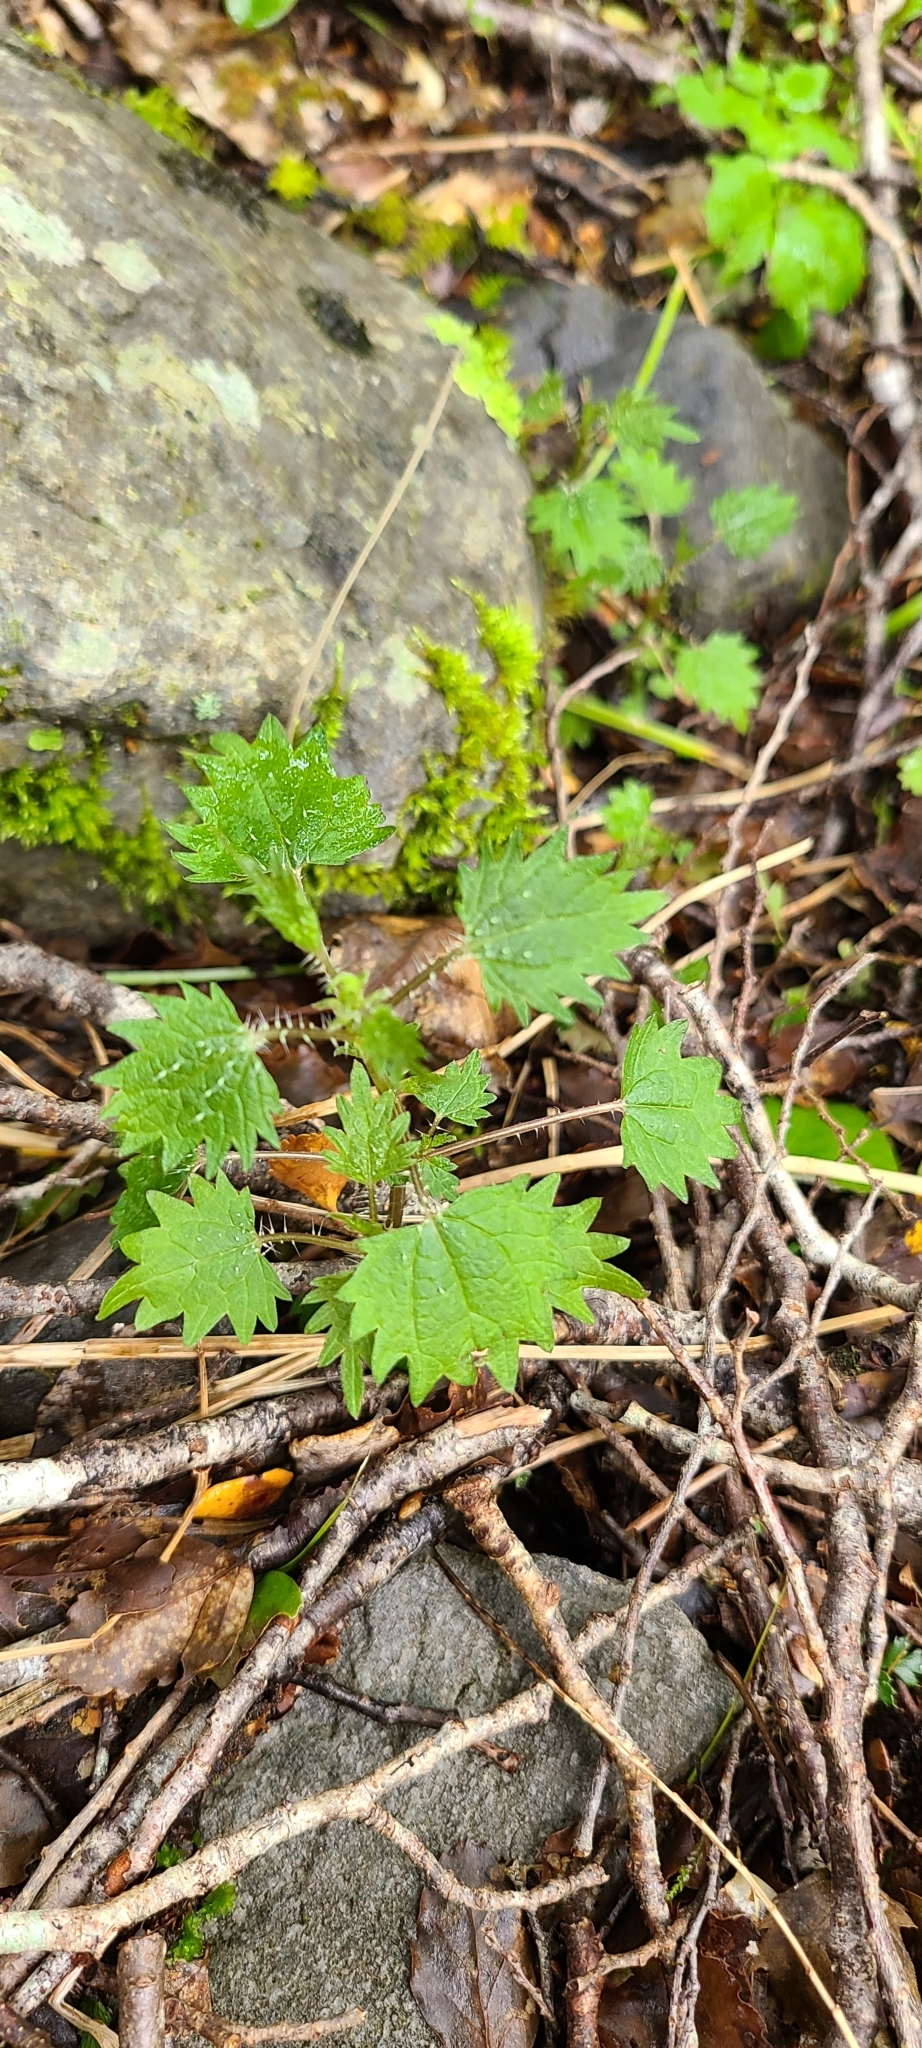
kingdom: Plantae
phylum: Tracheophyta
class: Magnoliopsida
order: Rosales
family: Urticaceae
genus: Urtica
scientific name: Urtica sykesii
